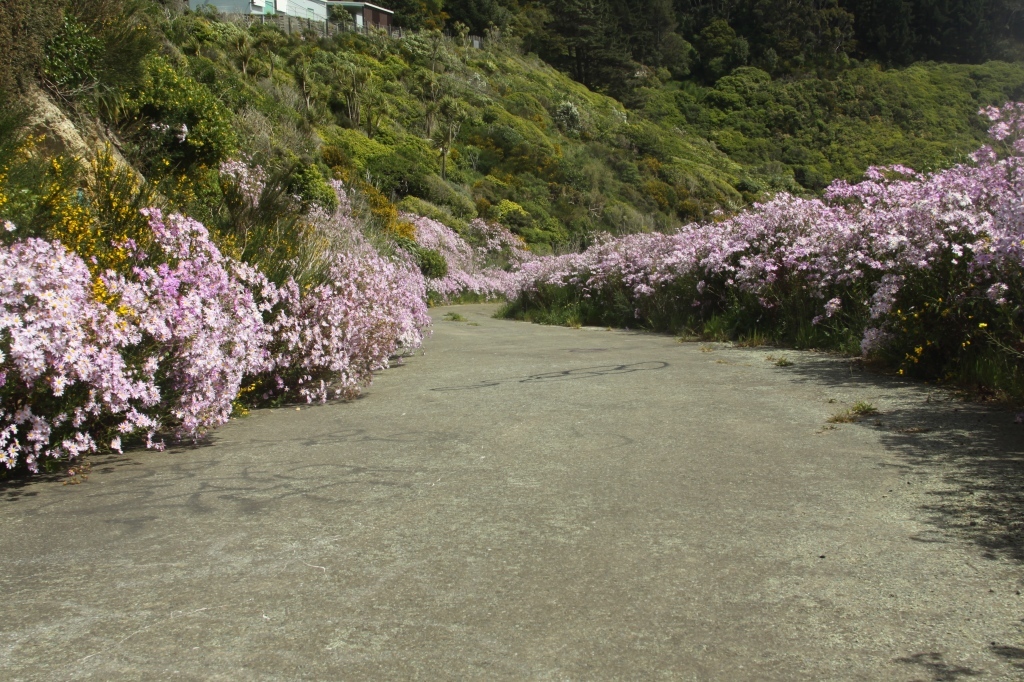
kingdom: Plantae
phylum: Tracheophyta
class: Magnoliopsida
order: Asterales
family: Asteraceae
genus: Senecio
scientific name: Senecio glastifolius
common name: Woad-leaved ragwort
